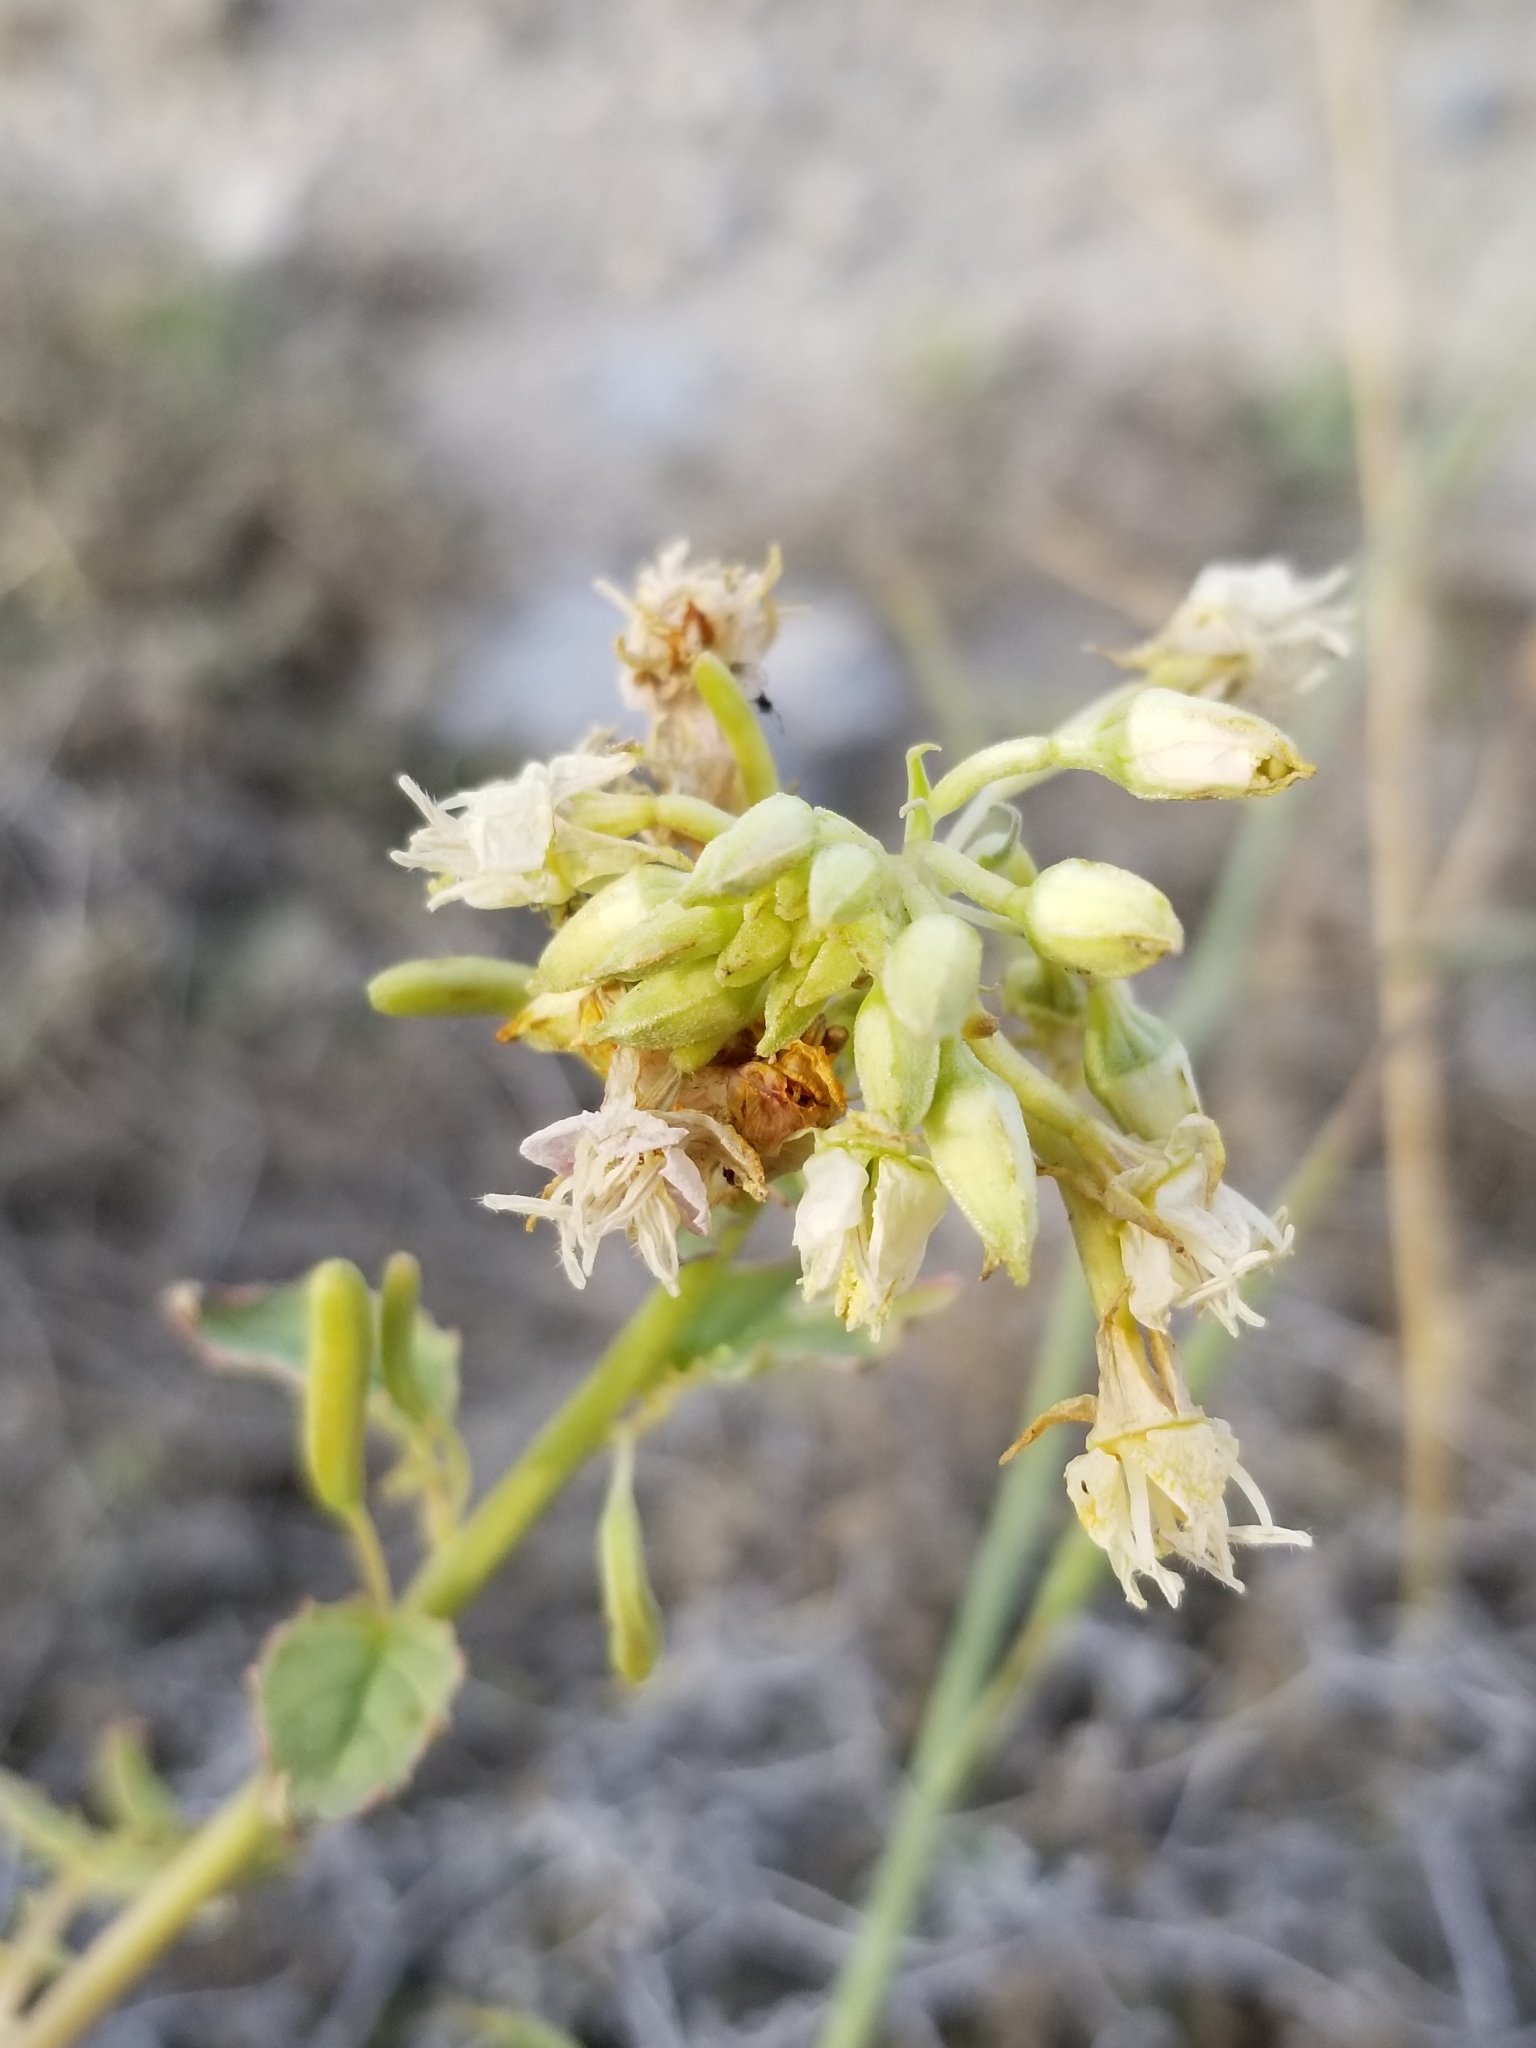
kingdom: Plantae
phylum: Tracheophyta
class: Magnoliopsida
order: Myrtales
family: Onagraceae
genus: Chylismia
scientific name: Chylismia claviformis
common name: Browneyes
